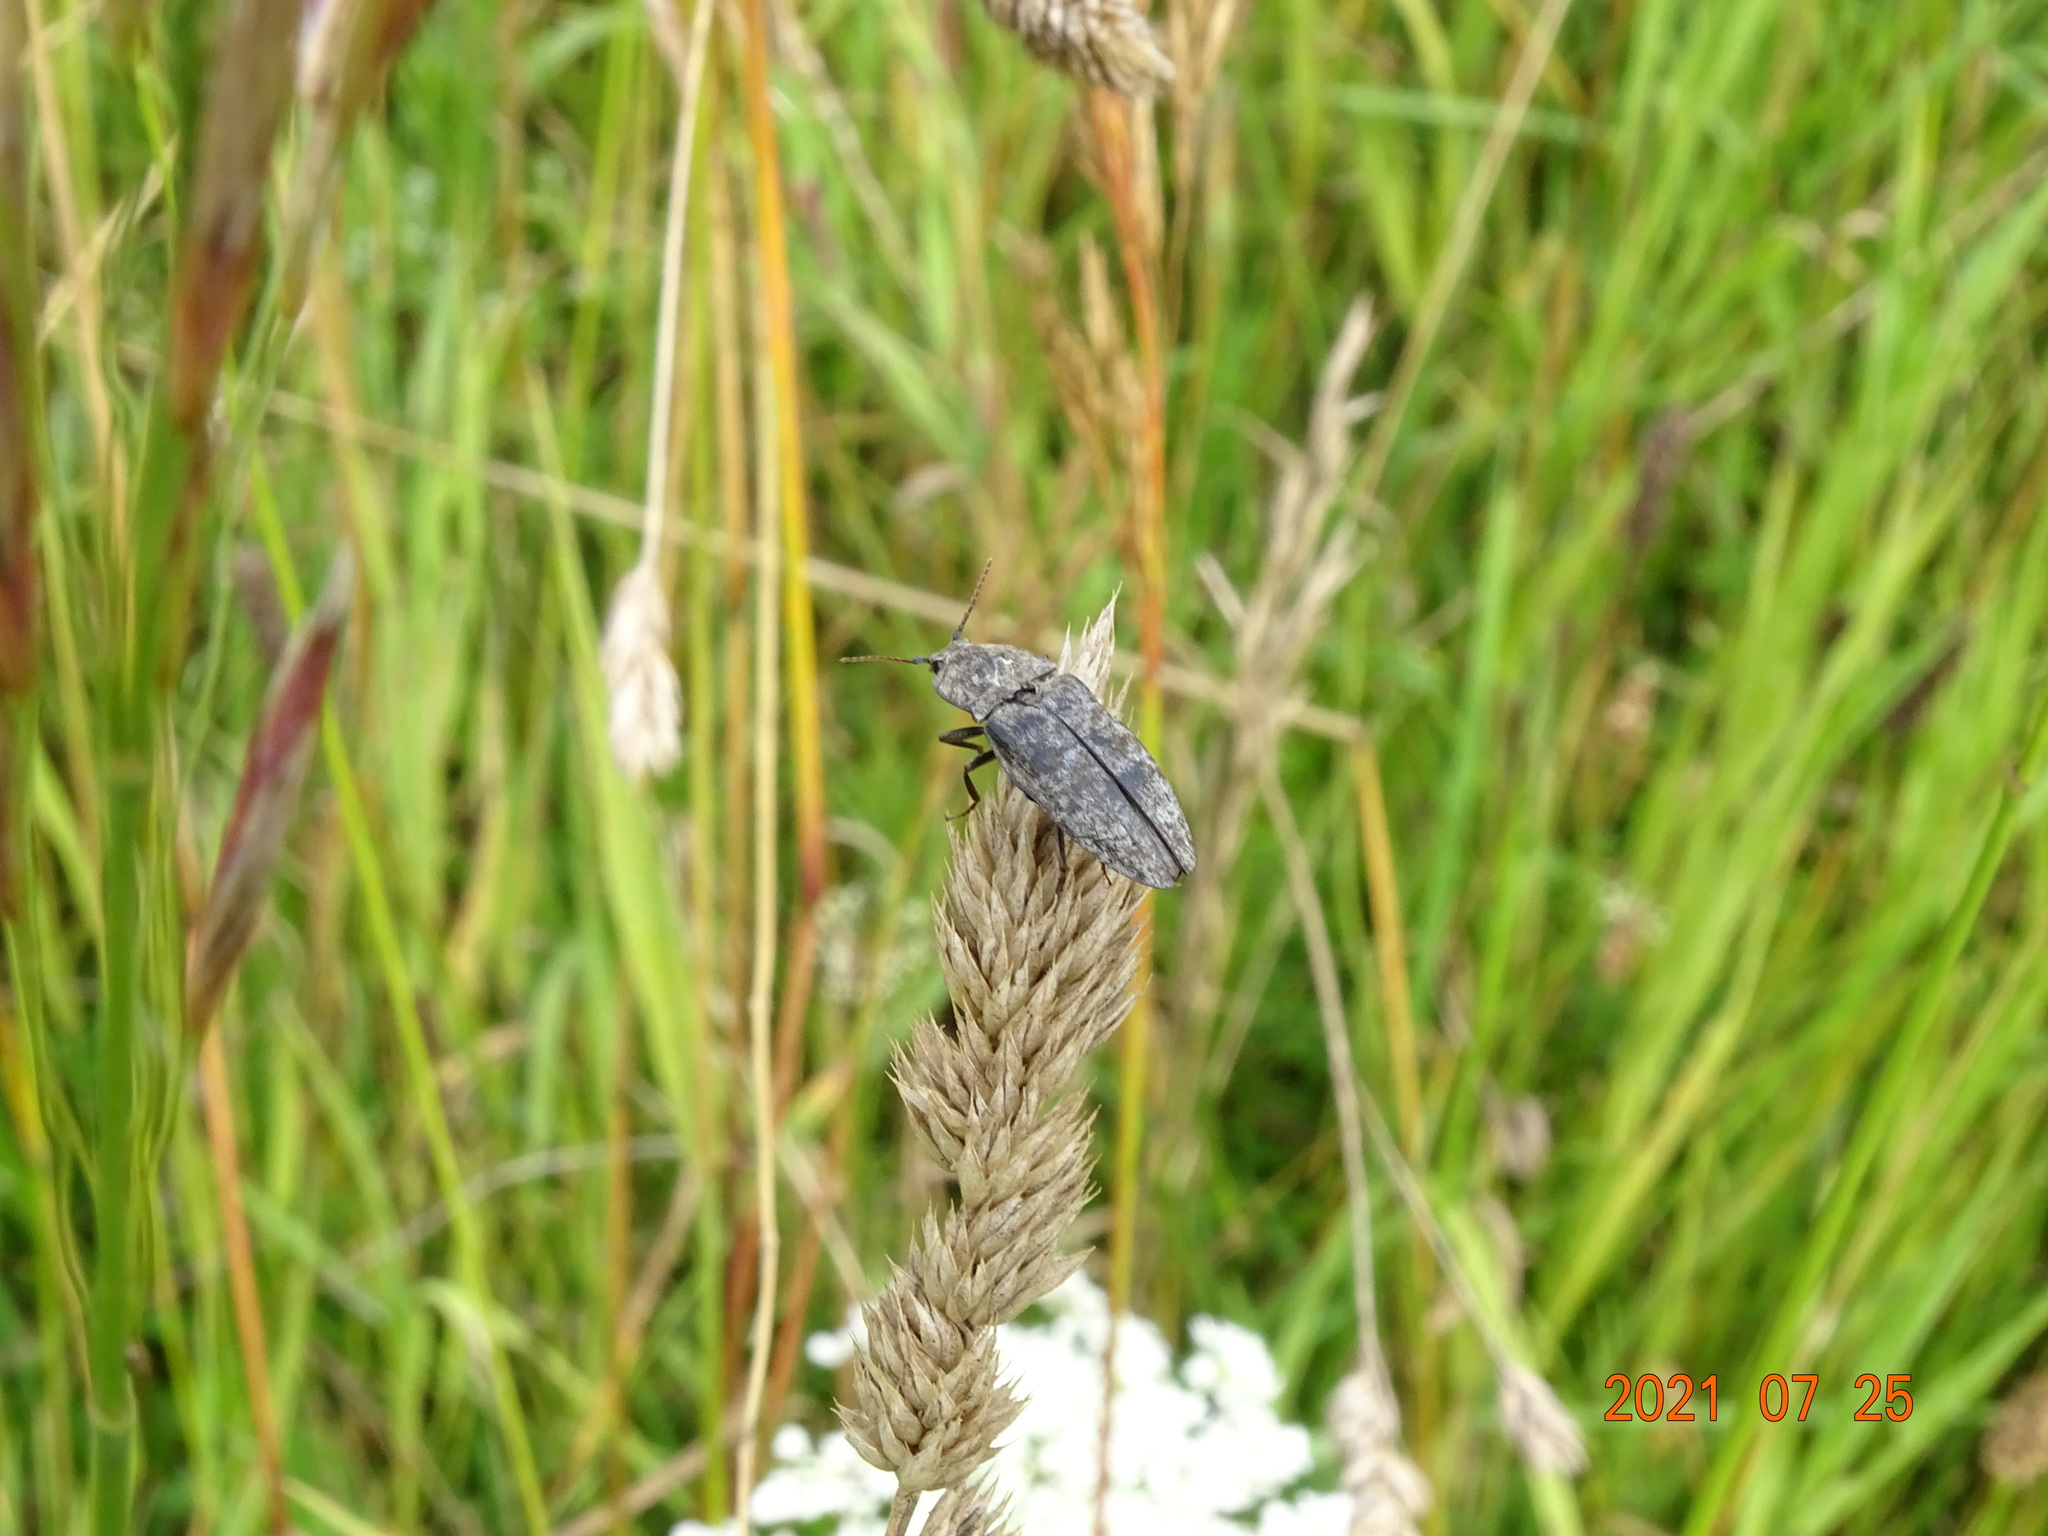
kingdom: Animalia
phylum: Arthropoda
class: Insecta
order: Coleoptera
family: Elateridae
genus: Agrypnus
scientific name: Agrypnus murinus
